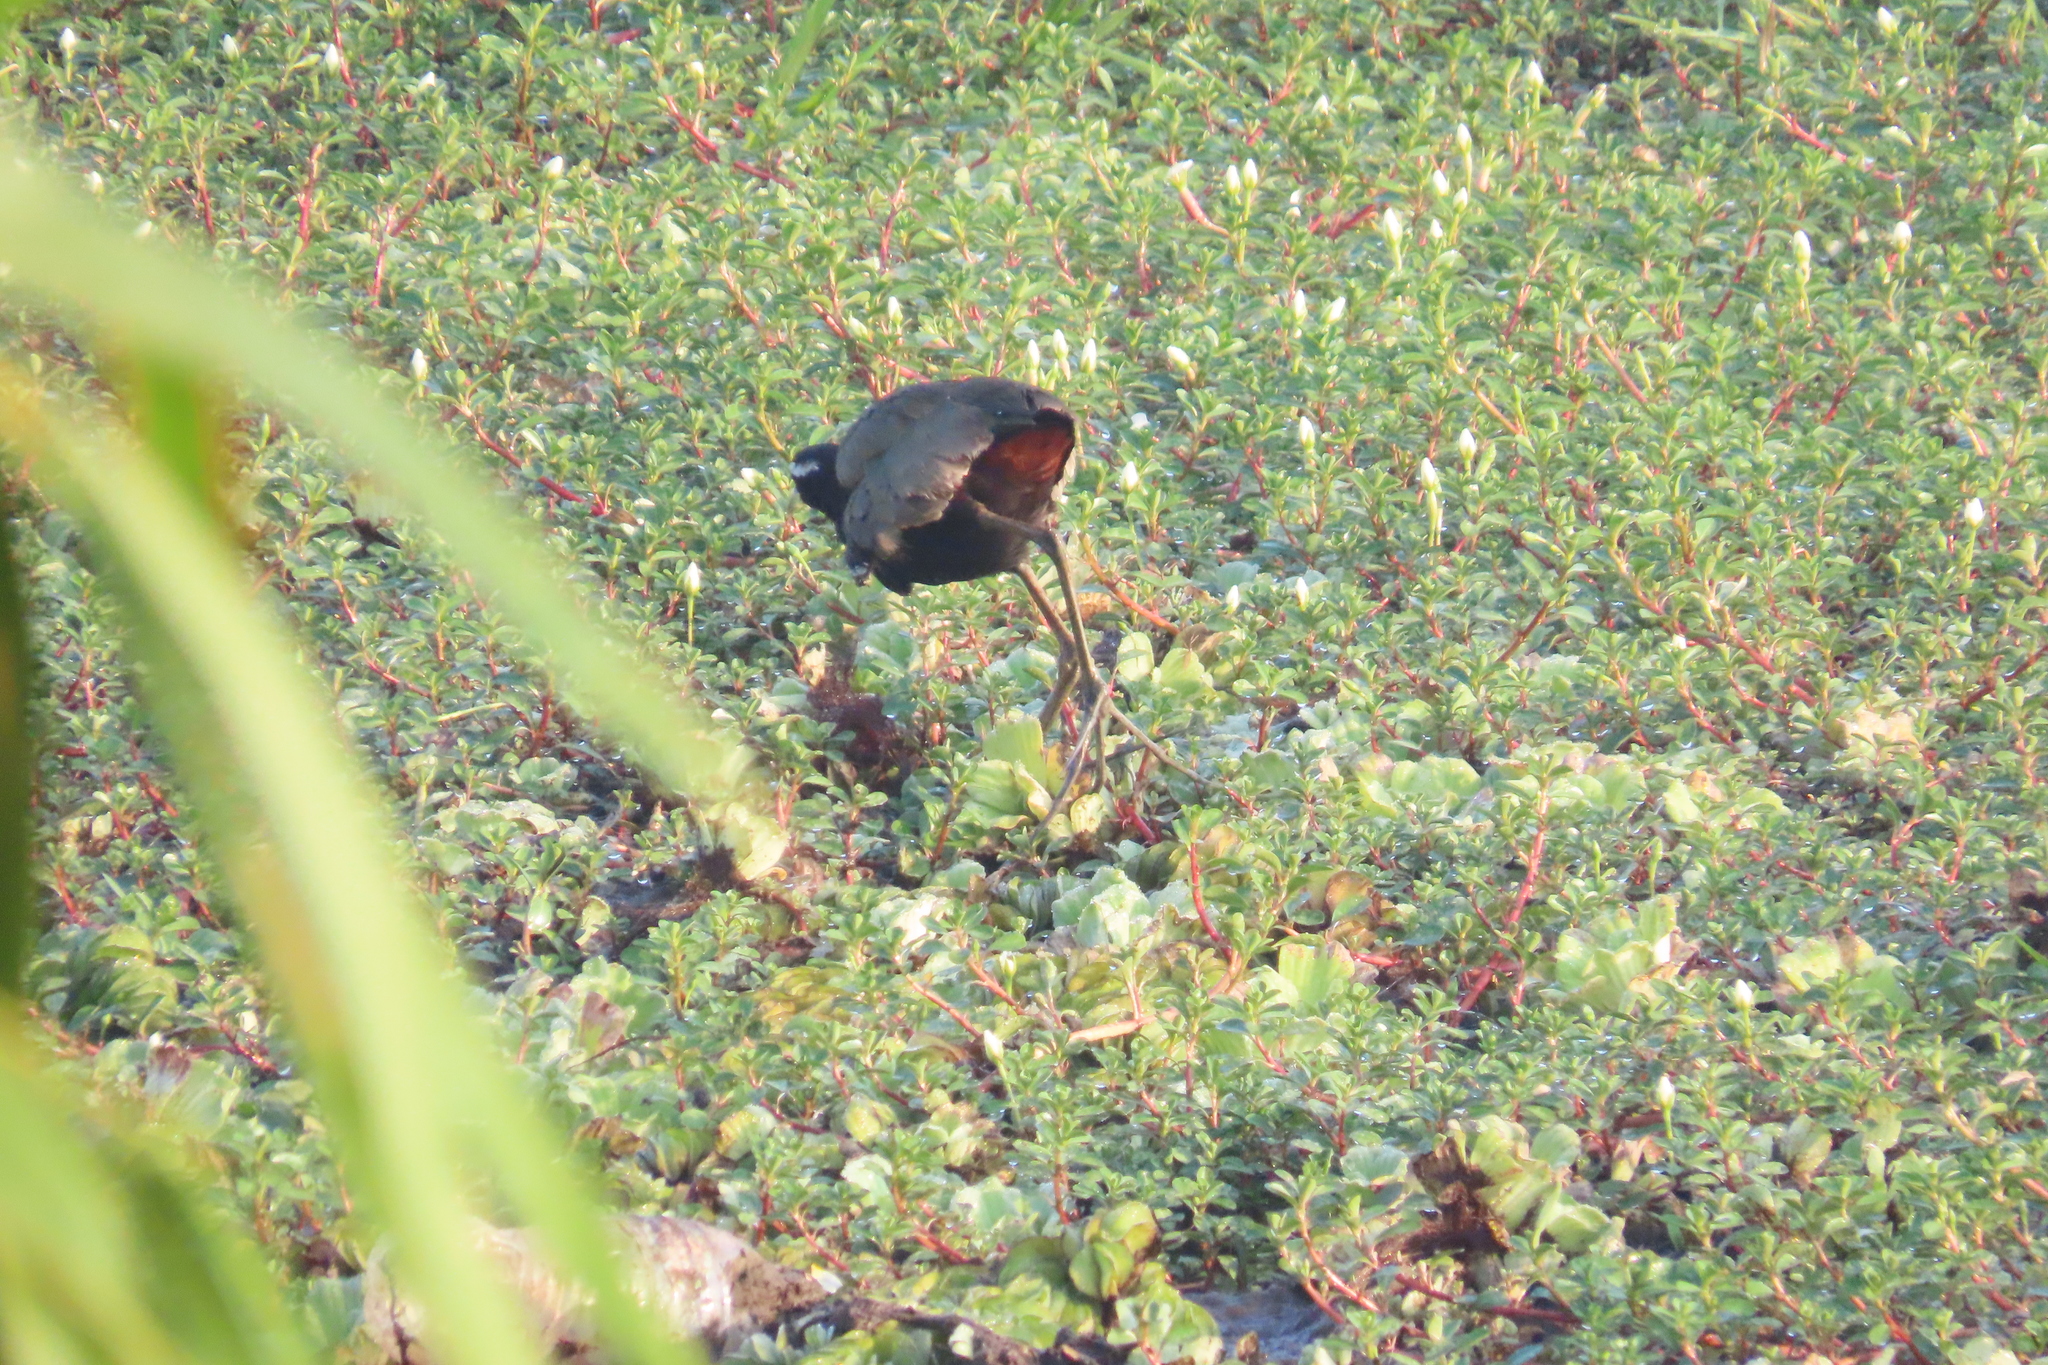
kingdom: Animalia
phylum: Chordata
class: Aves
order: Charadriiformes
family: Jacanidae
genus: Metopidius
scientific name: Metopidius indicus
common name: Bronze-winged jacana
